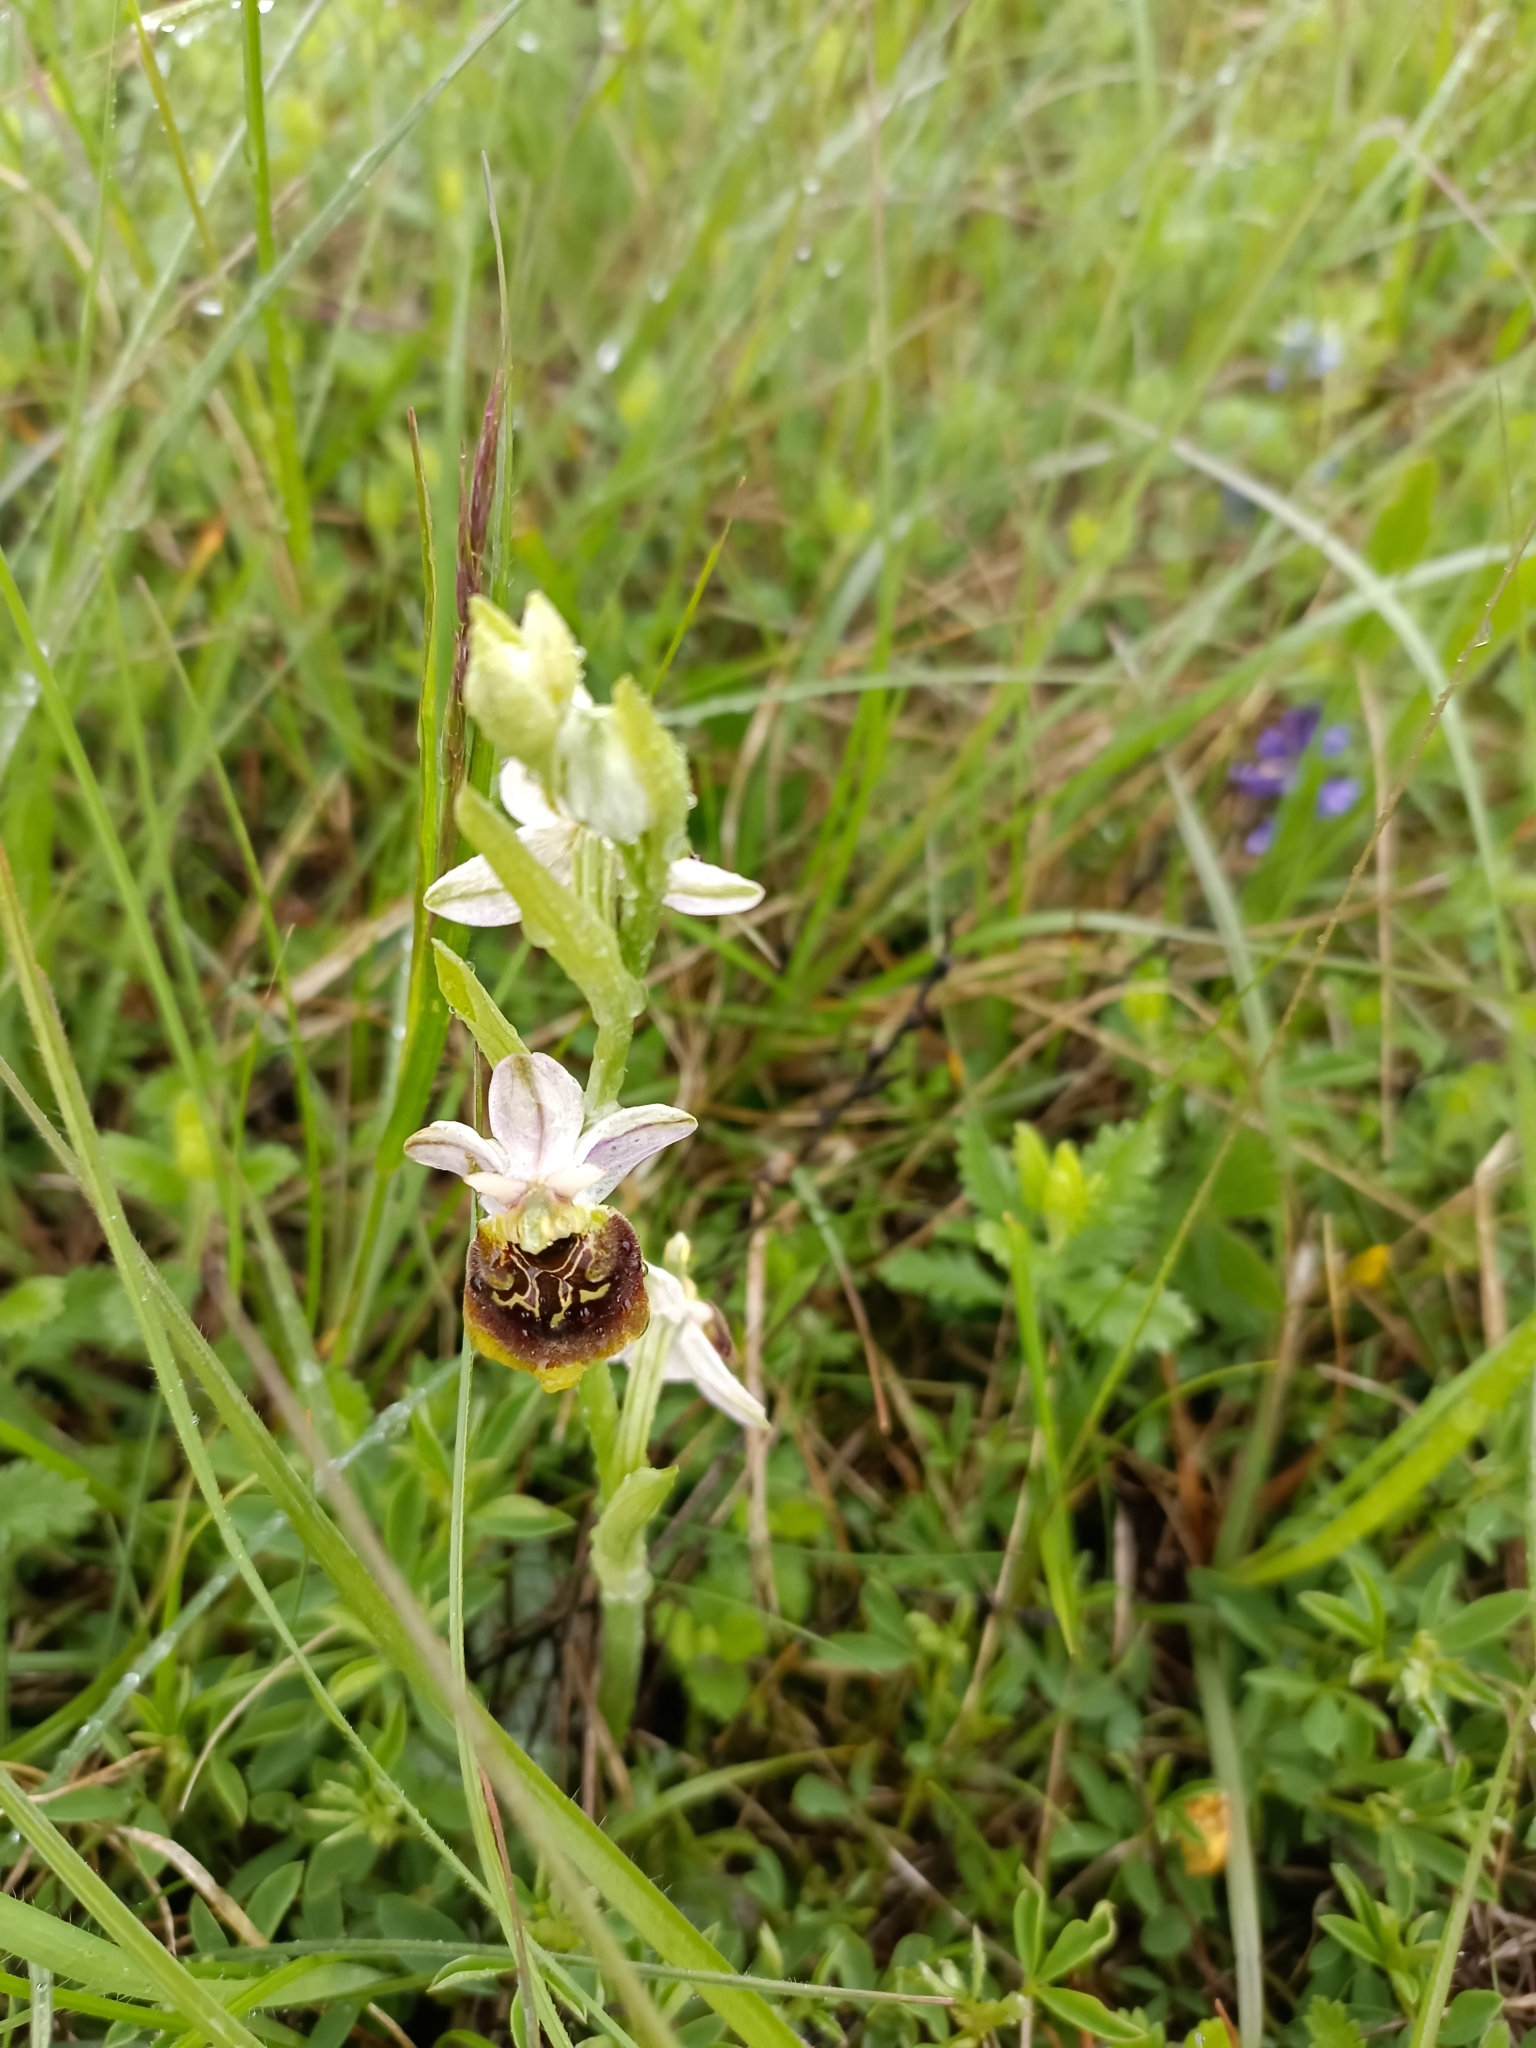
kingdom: Plantae
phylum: Tracheophyta
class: Liliopsida
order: Asparagales
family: Orchidaceae
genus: Ophrys
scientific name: Ophrys holosericea
